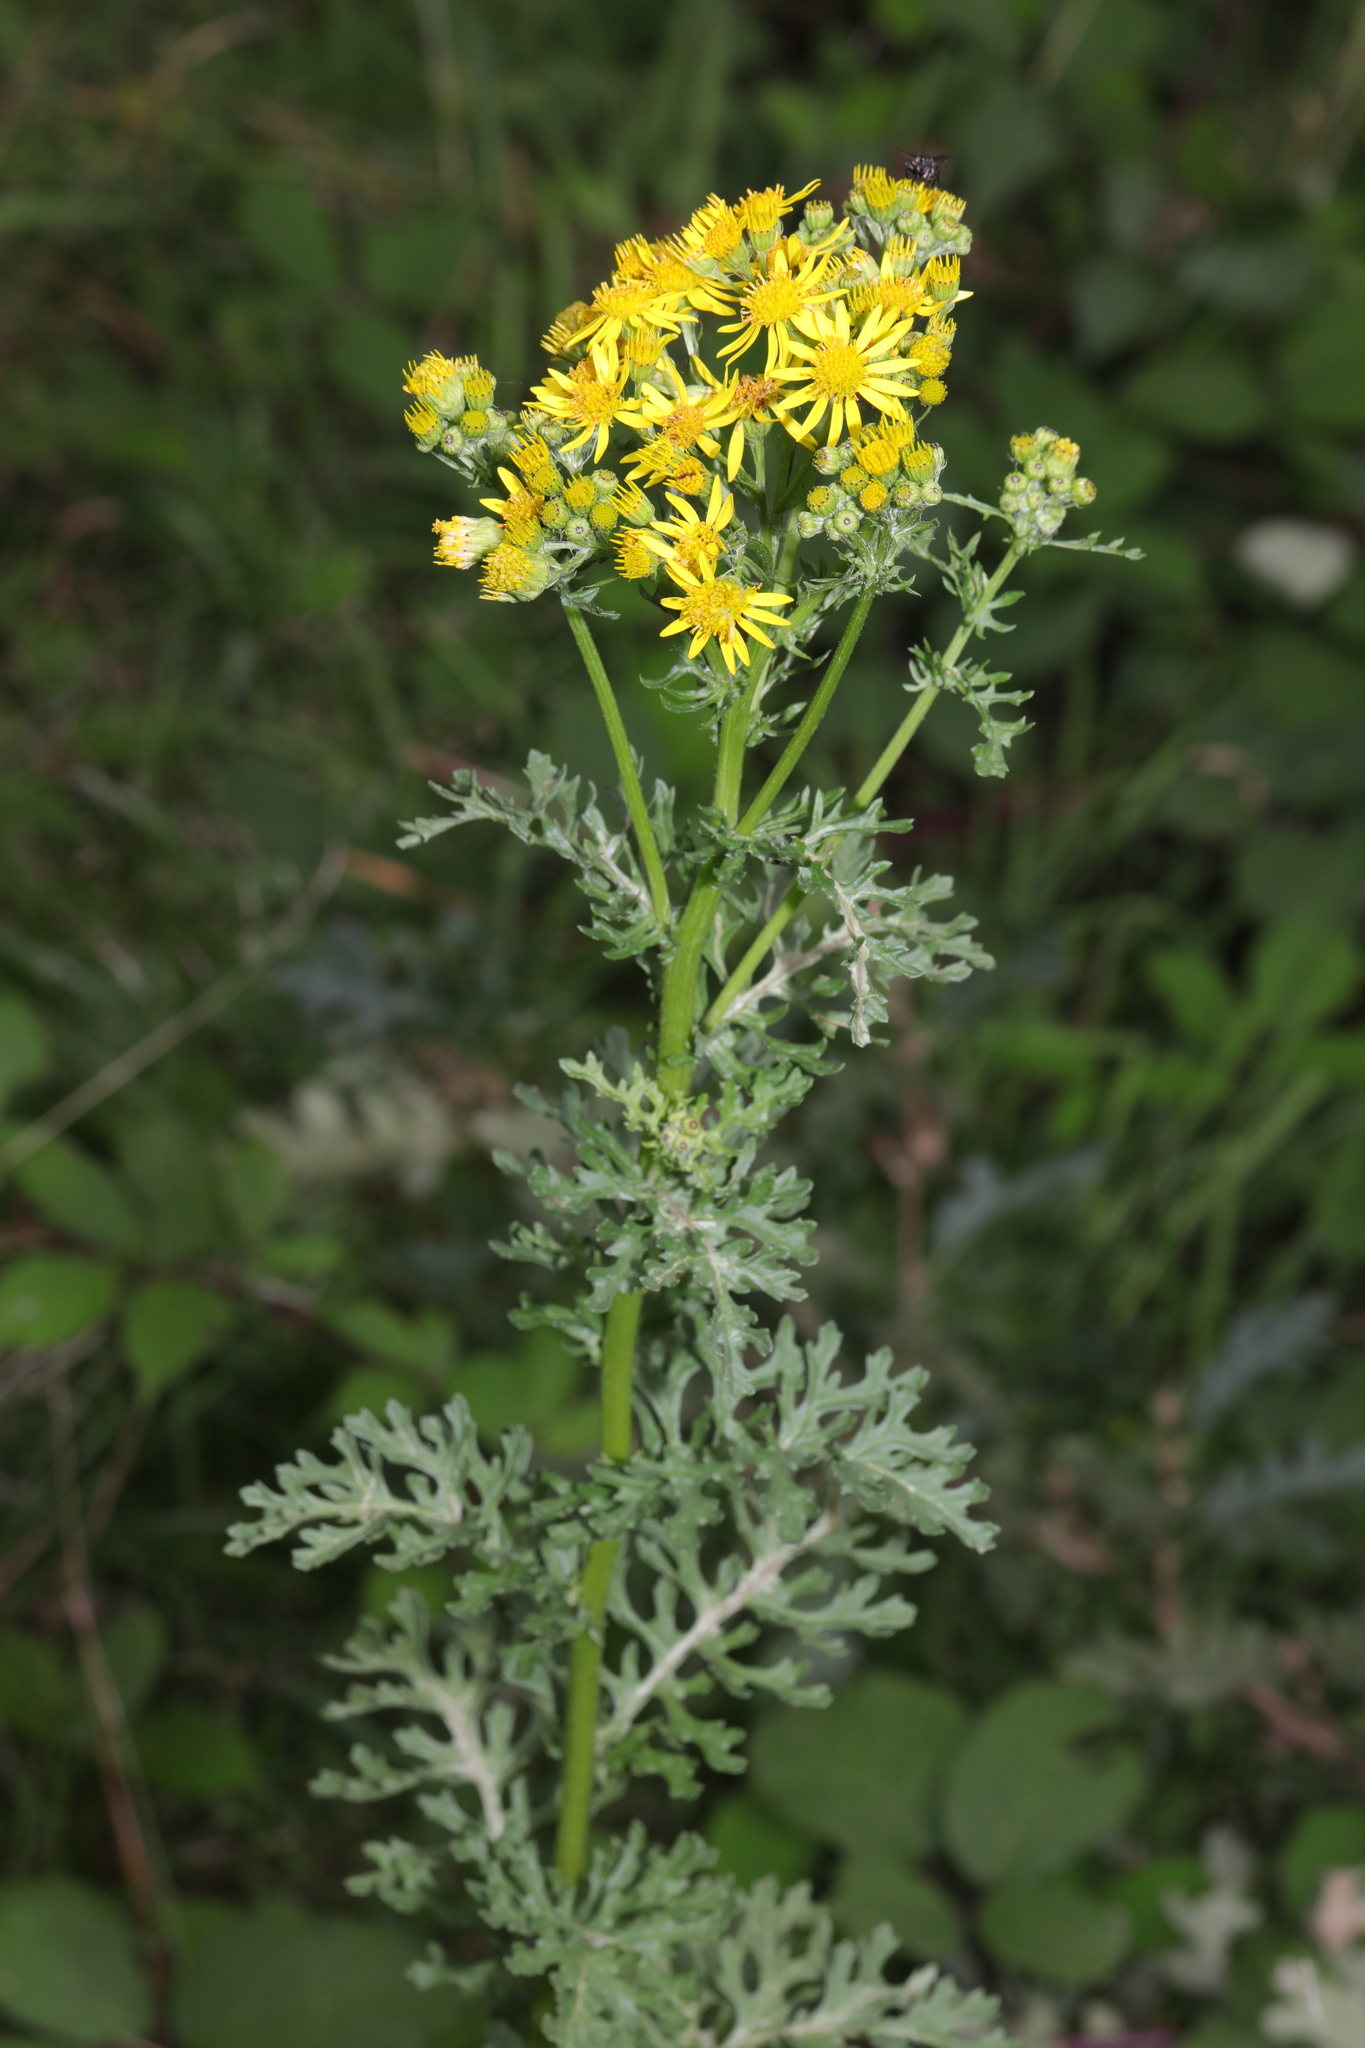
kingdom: Plantae
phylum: Tracheophyta
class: Magnoliopsida
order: Asterales
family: Asteraceae
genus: Jacobaea
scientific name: Jacobaea vulgaris
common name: Stinking willie
